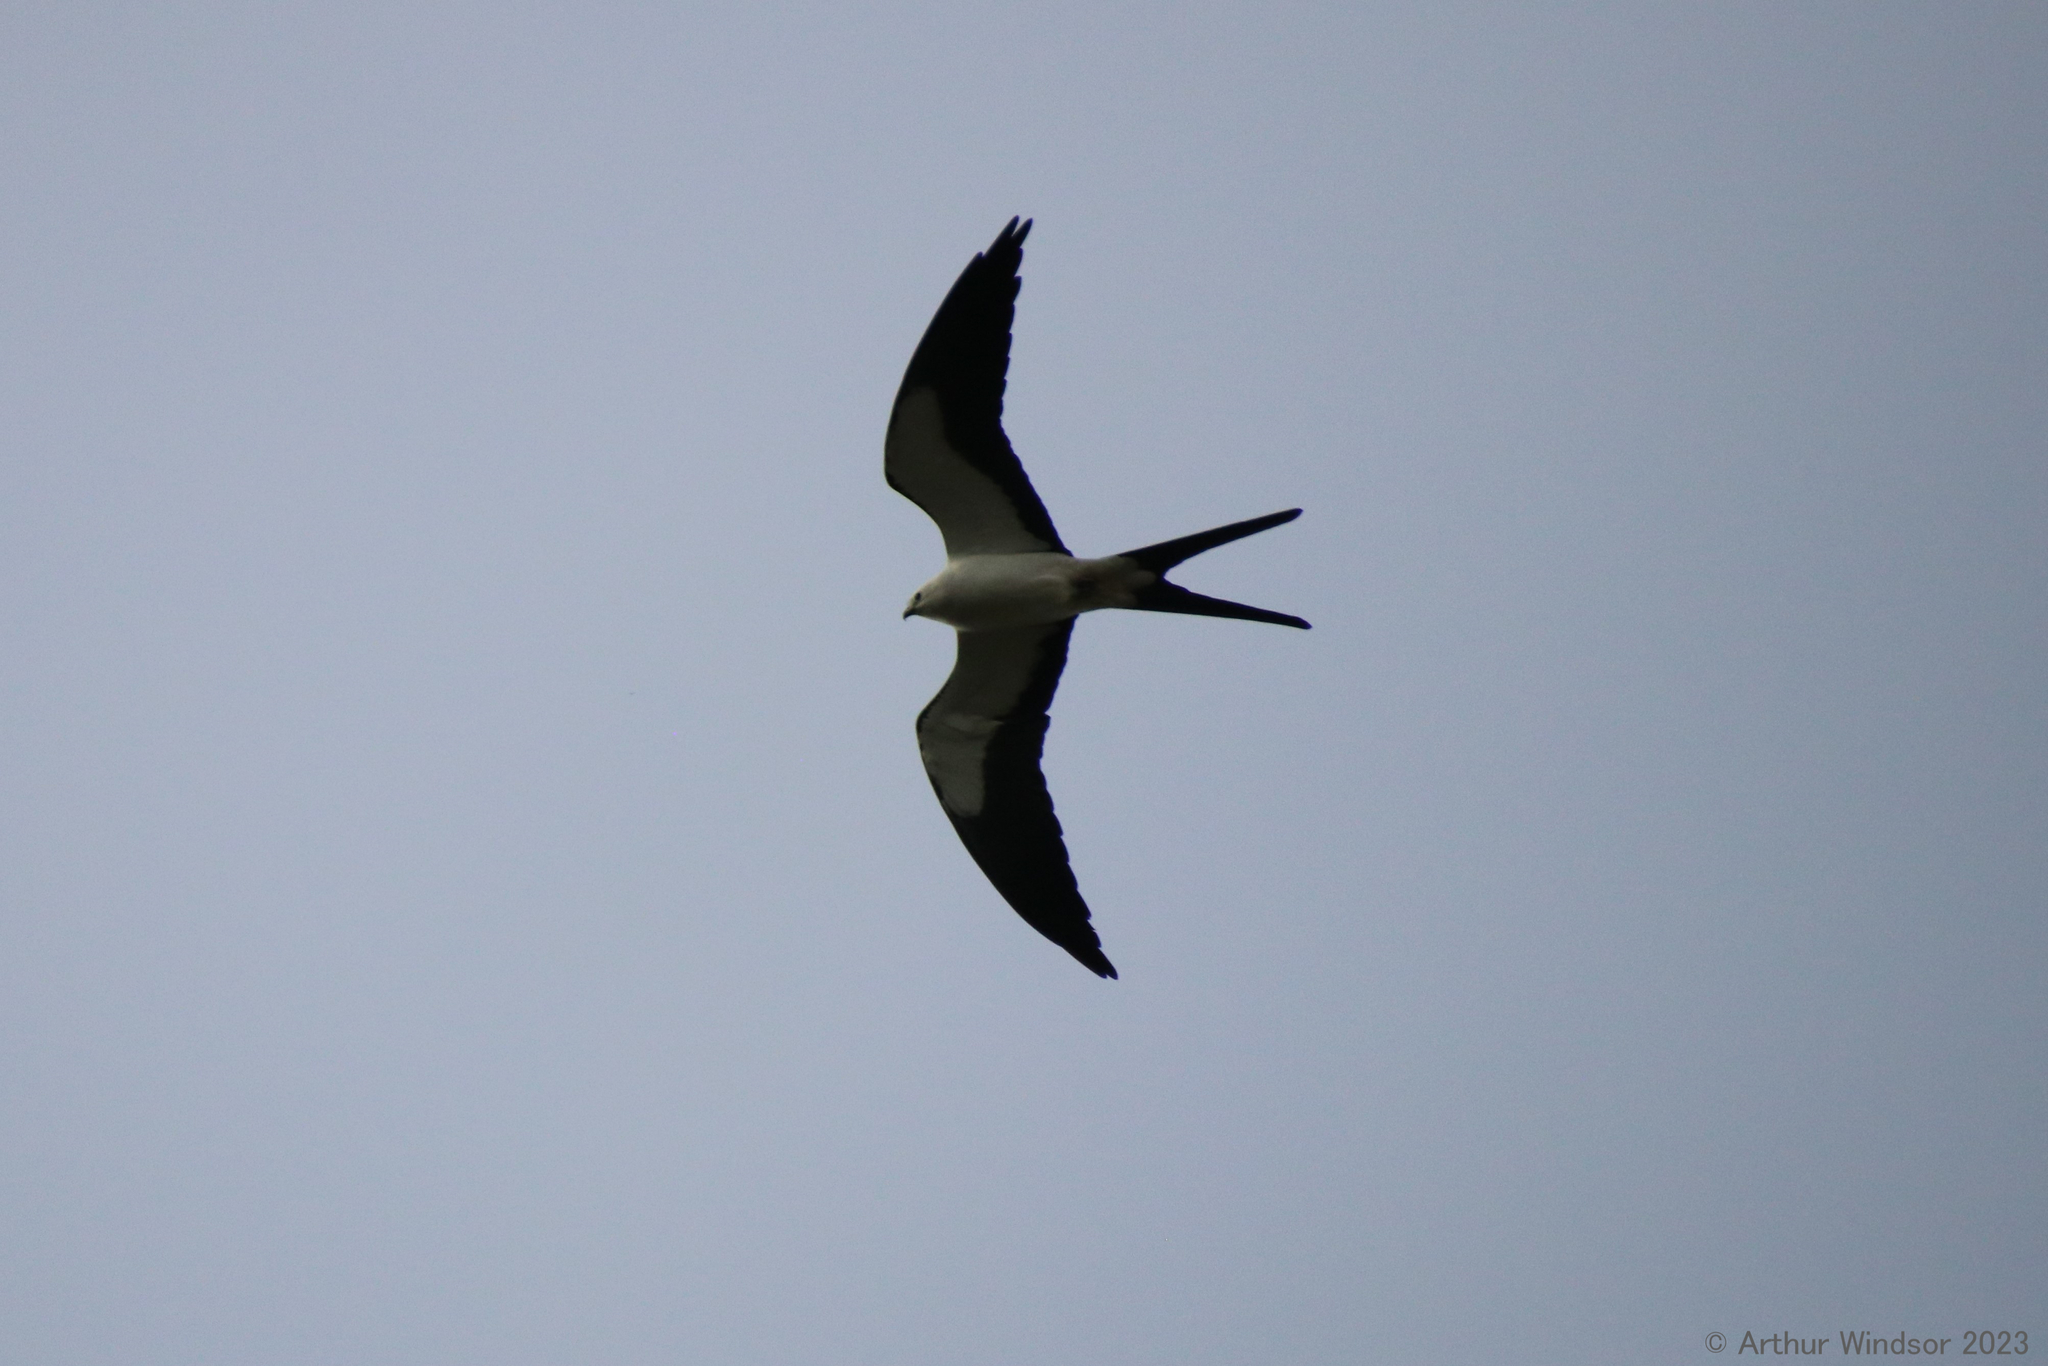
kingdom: Animalia
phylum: Chordata
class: Aves
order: Accipitriformes
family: Accipitridae
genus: Elanoides
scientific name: Elanoides forficatus
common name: Swallow-tailed kite
